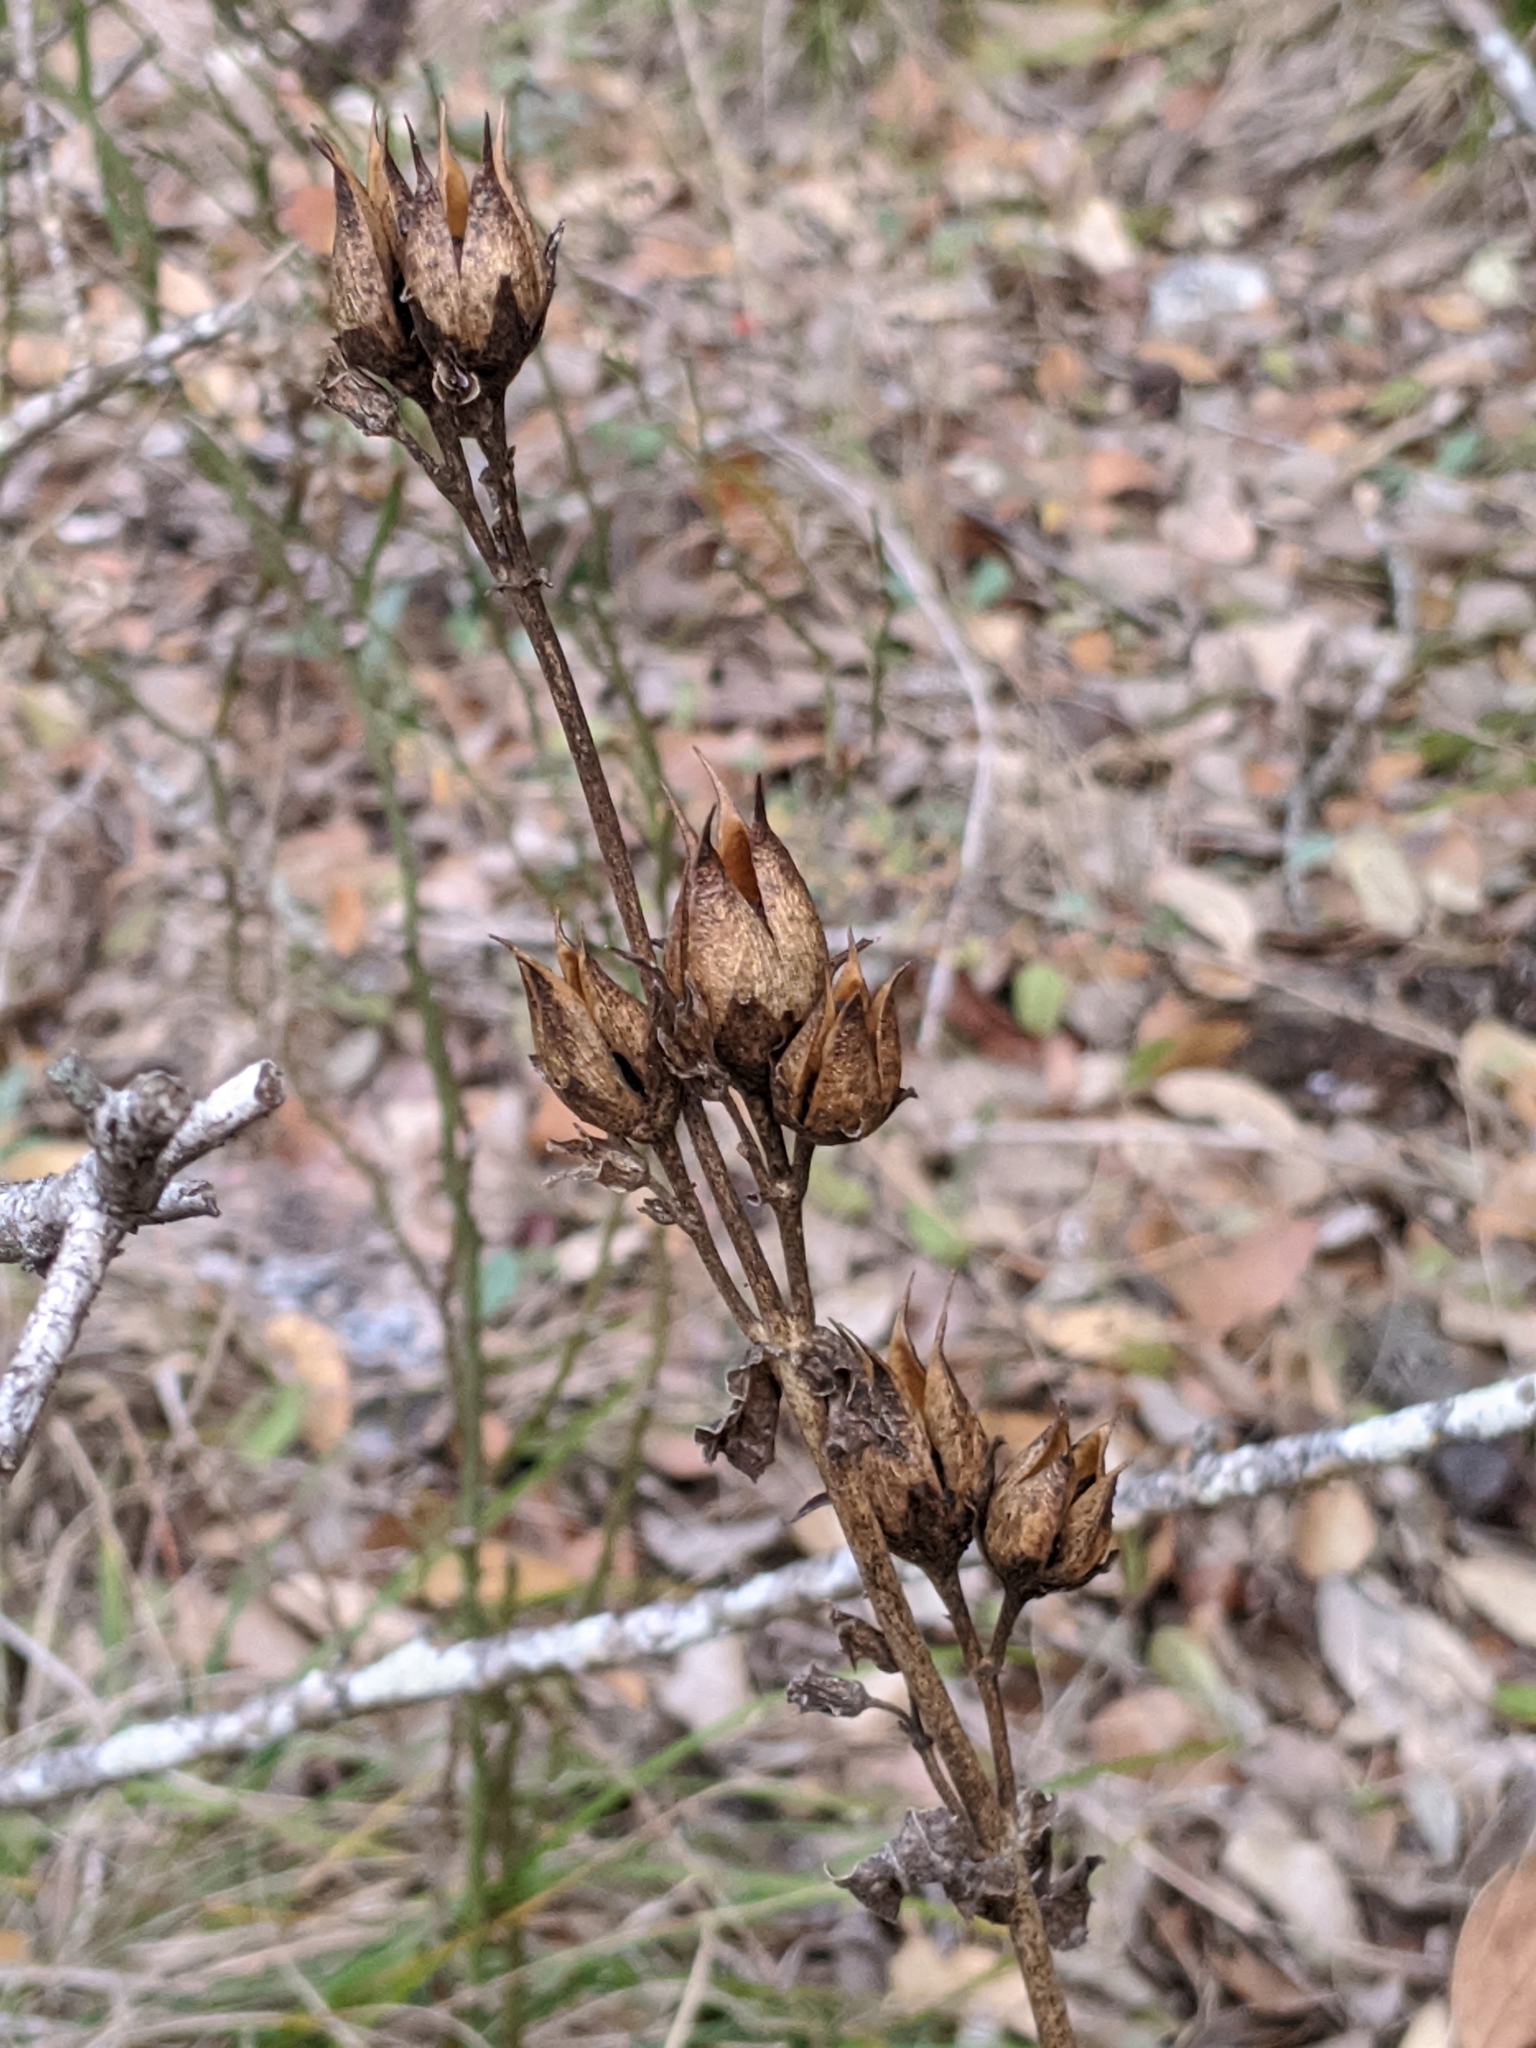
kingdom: Plantae
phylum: Tracheophyta
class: Magnoliopsida
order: Lamiales
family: Plantaginaceae
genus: Penstemon
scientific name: Penstemon cobaea
